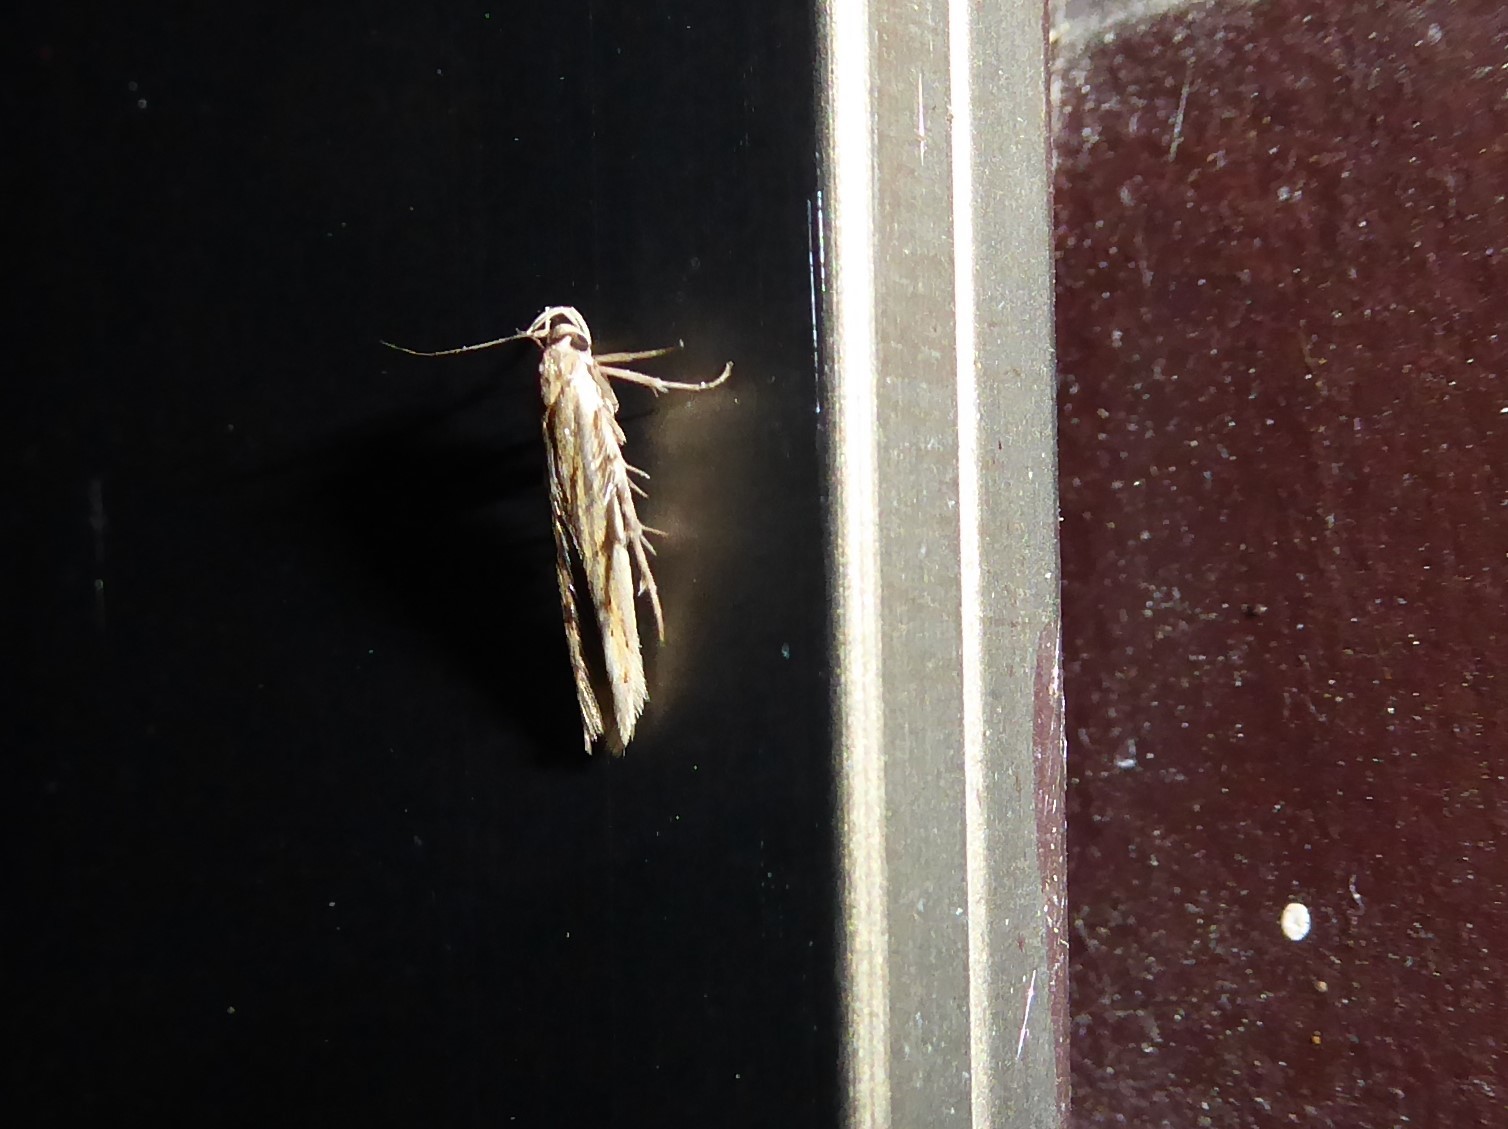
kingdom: Animalia
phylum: Arthropoda
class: Insecta
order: Lepidoptera
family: Stathmopodidae
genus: Stathmopoda
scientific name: Stathmopoda plumbiflua
